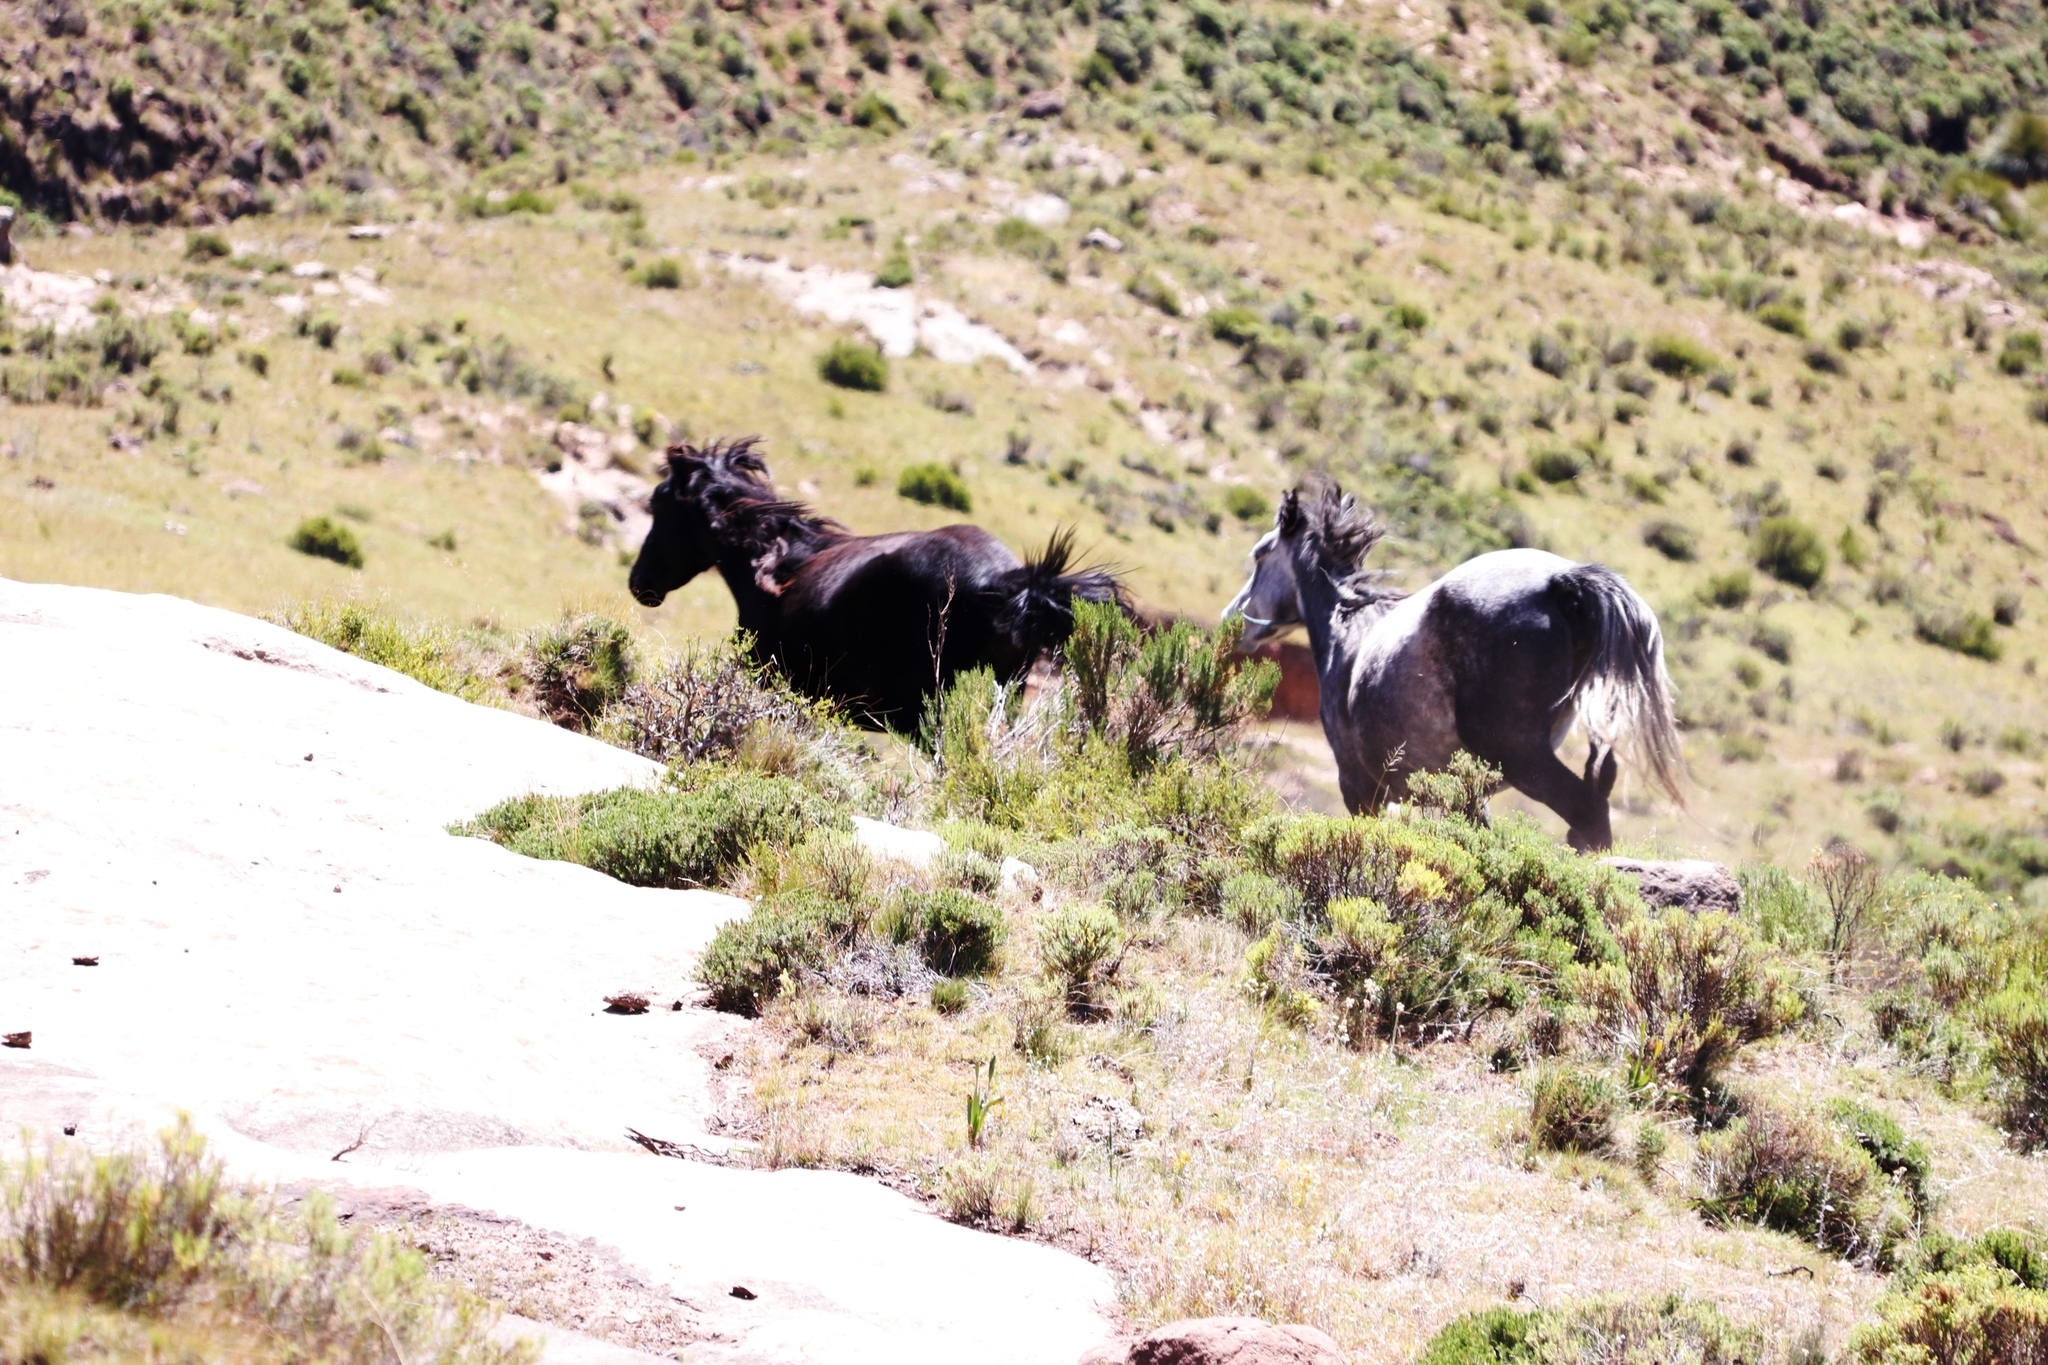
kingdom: Animalia
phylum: Chordata
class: Mammalia
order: Perissodactyla
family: Equidae
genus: Equus
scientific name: Equus caballus
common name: Horse
